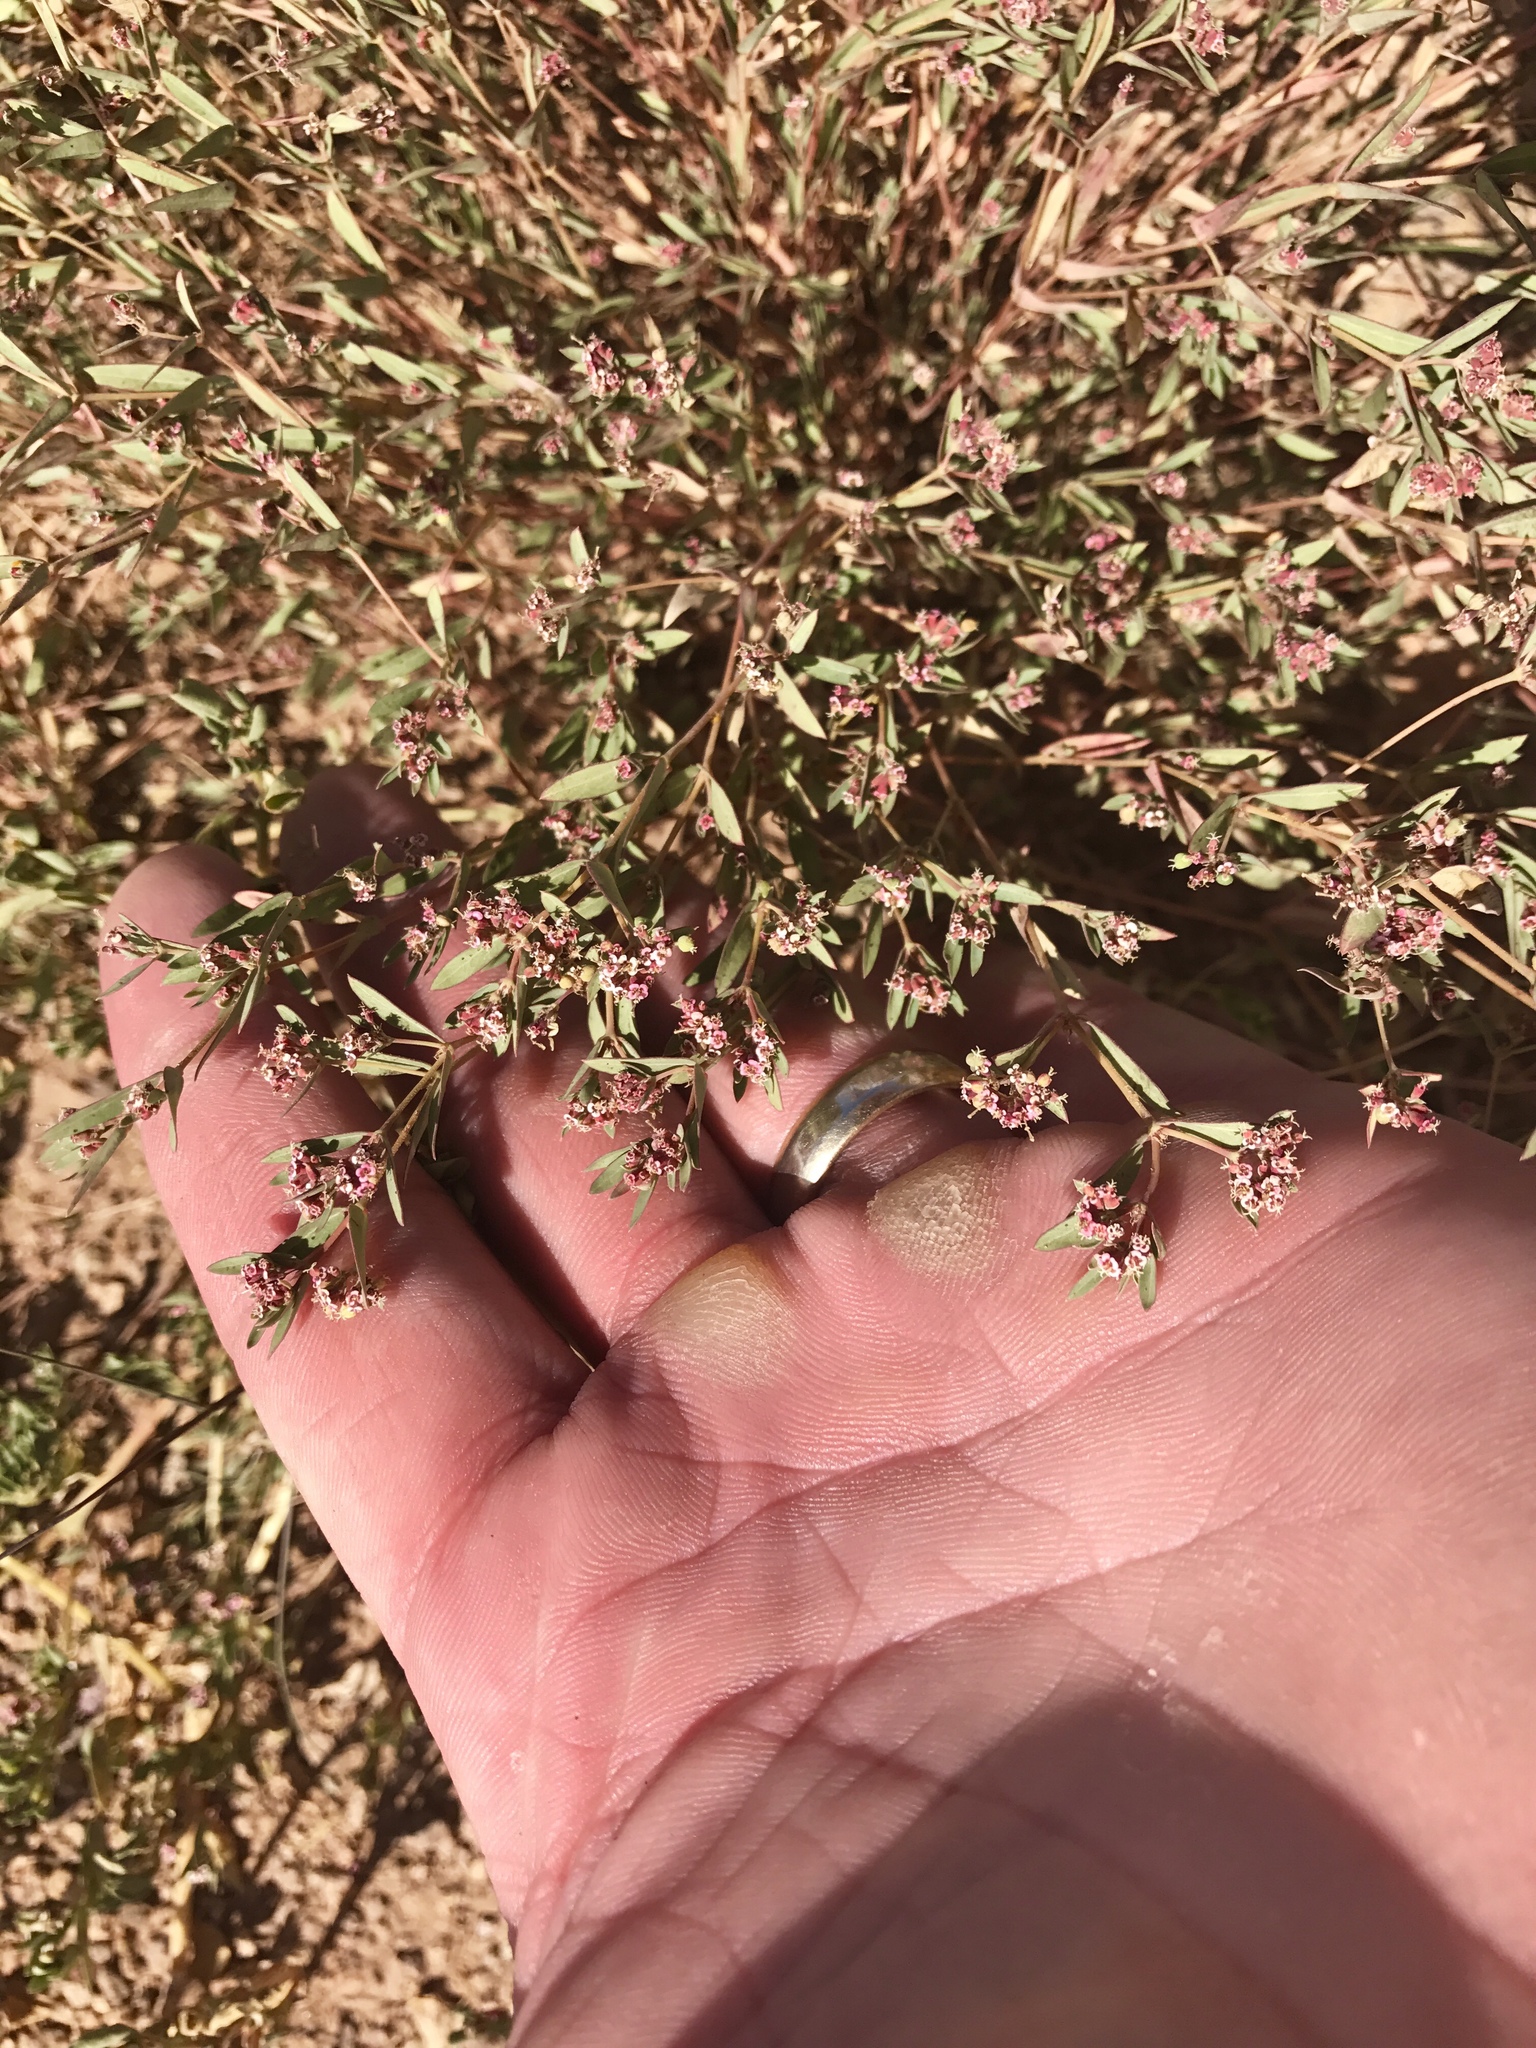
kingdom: Plantae
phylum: Tracheophyta
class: Magnoliopsida
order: Malpighiales
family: Euphorbiaceae
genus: Euphorbia
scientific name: Euphorbia capitellata
